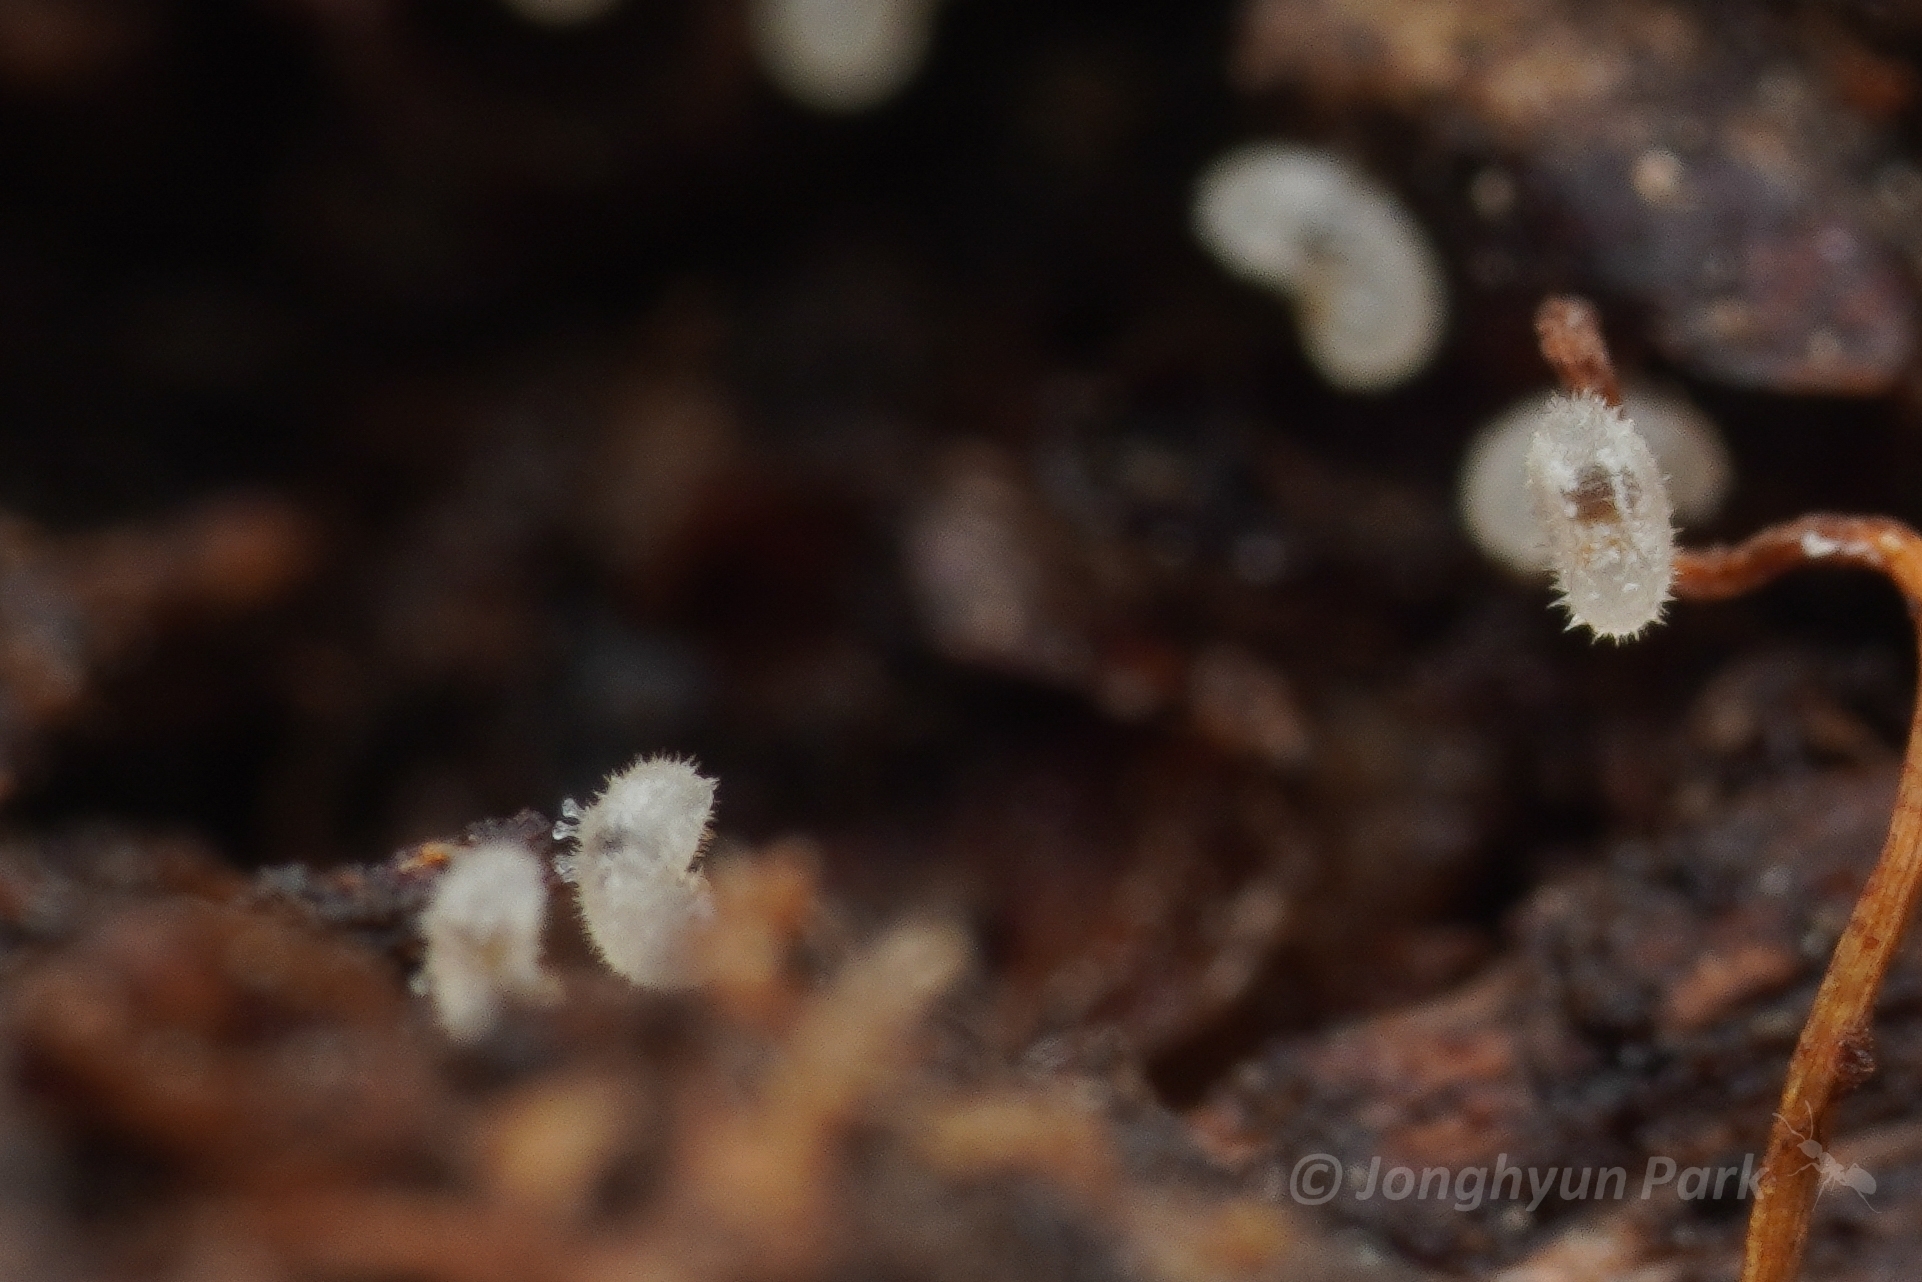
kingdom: Animalia
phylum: Arthropoda
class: Insecta
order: Hymenoptera
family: Formicidae
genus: Cryptopone
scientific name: Cryptopone sauteri
